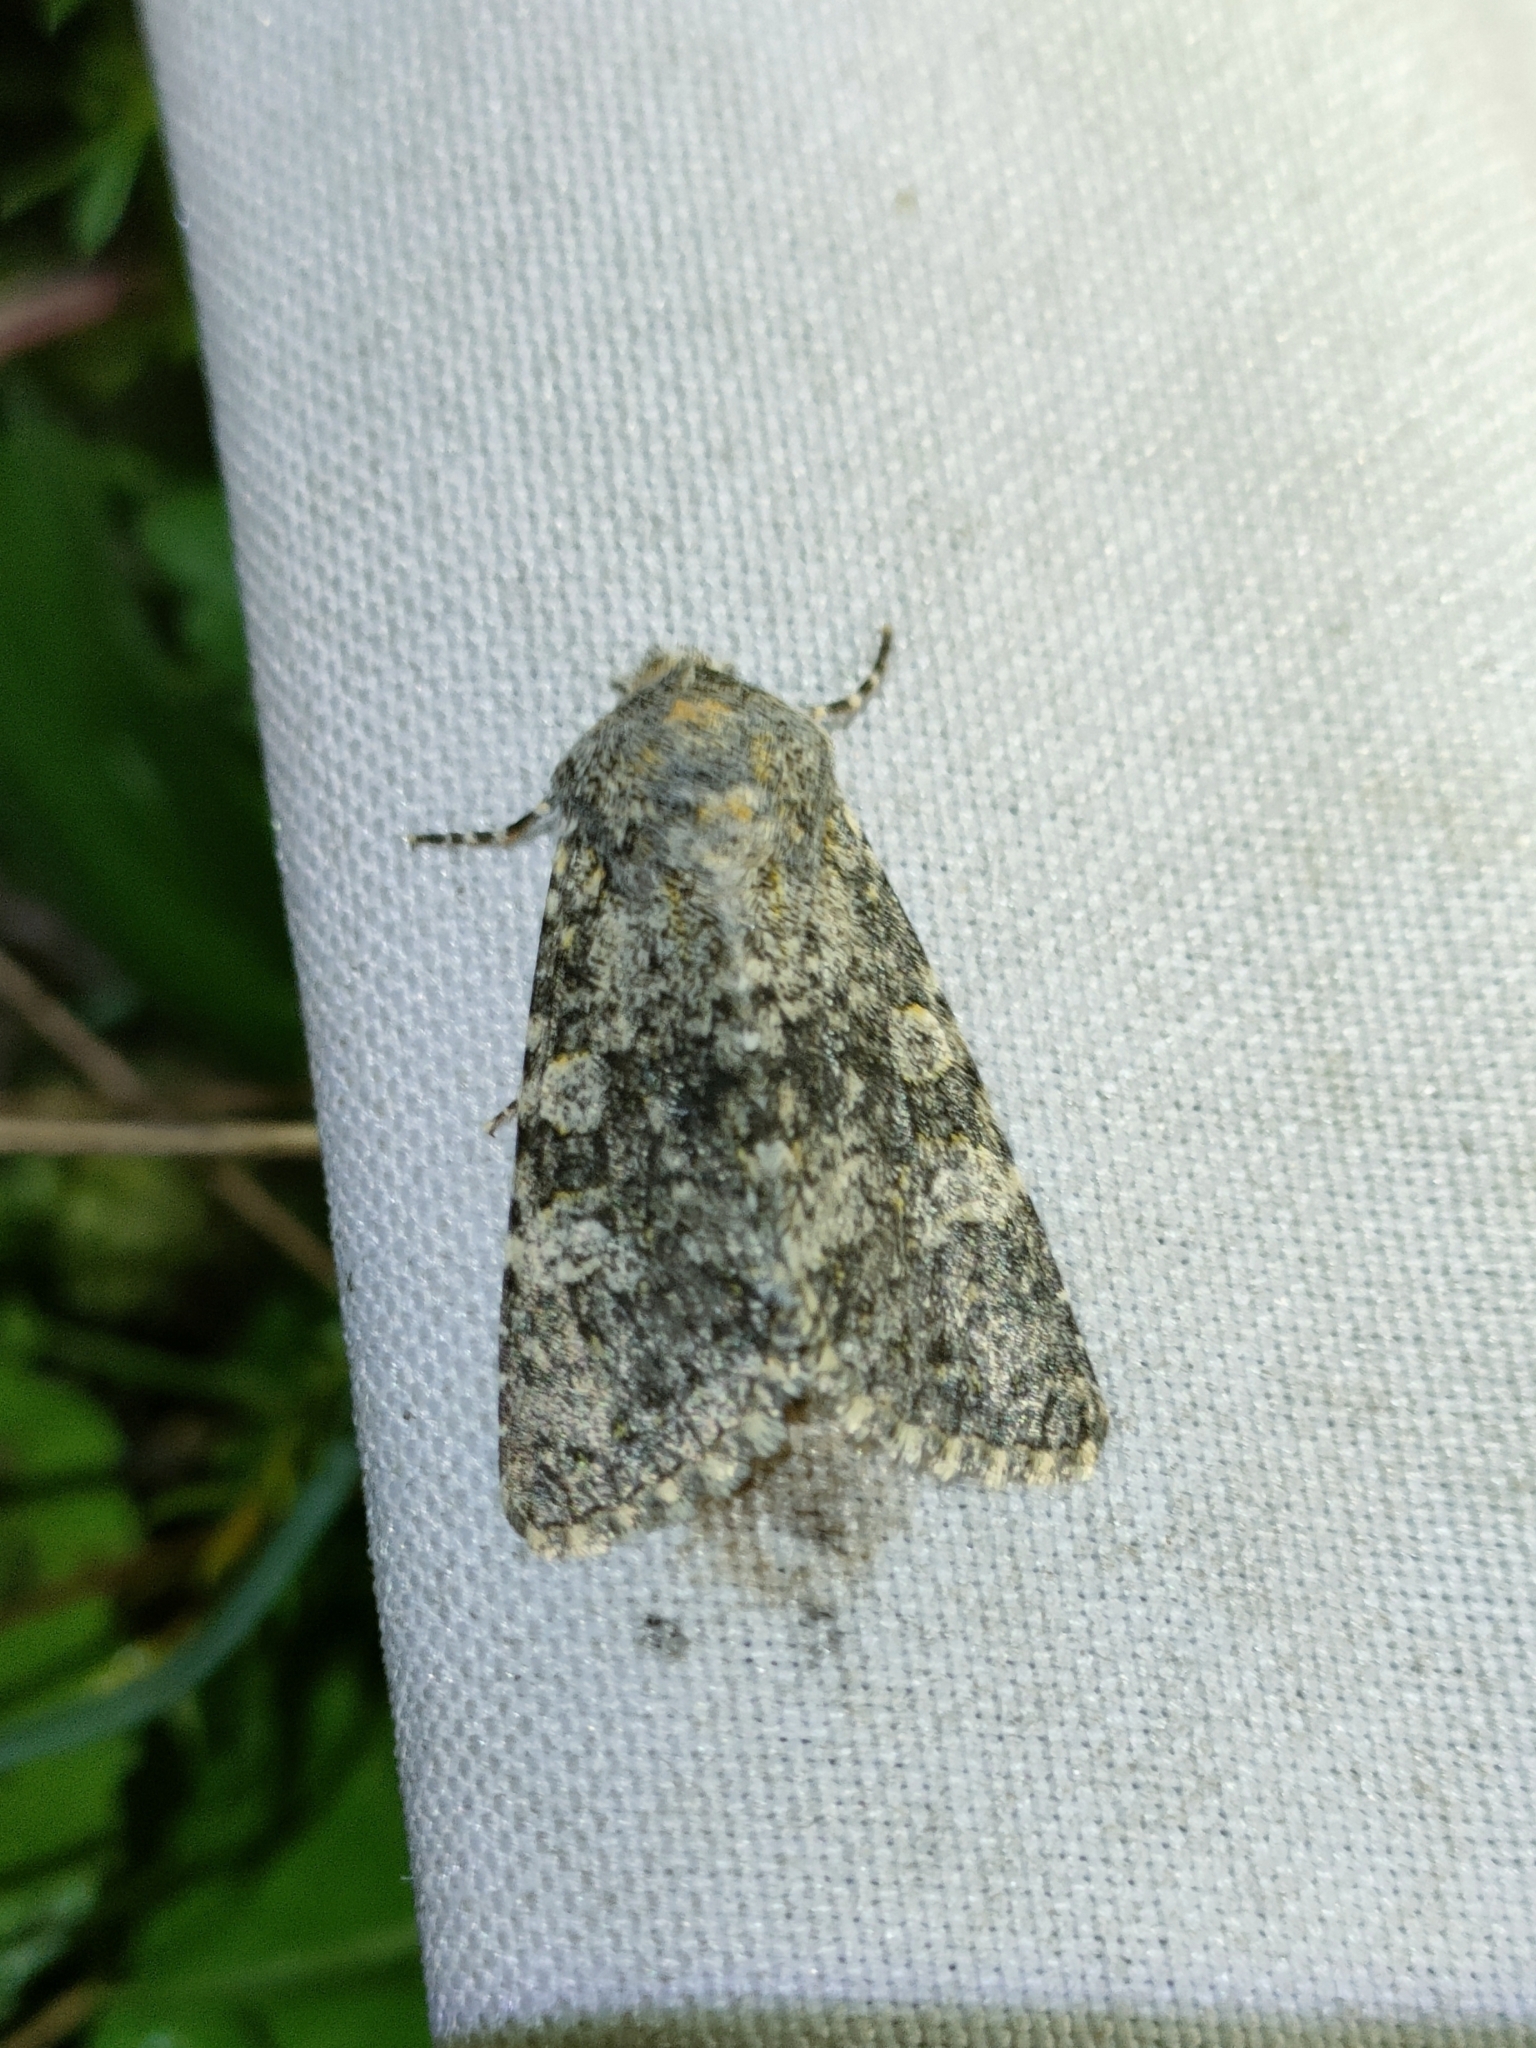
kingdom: Animalia
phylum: Arthropoda
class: Insecta
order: Lepidoptera
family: Noctuidae
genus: Polymixis
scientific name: Polymixis xanthomista
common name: Black-banded
